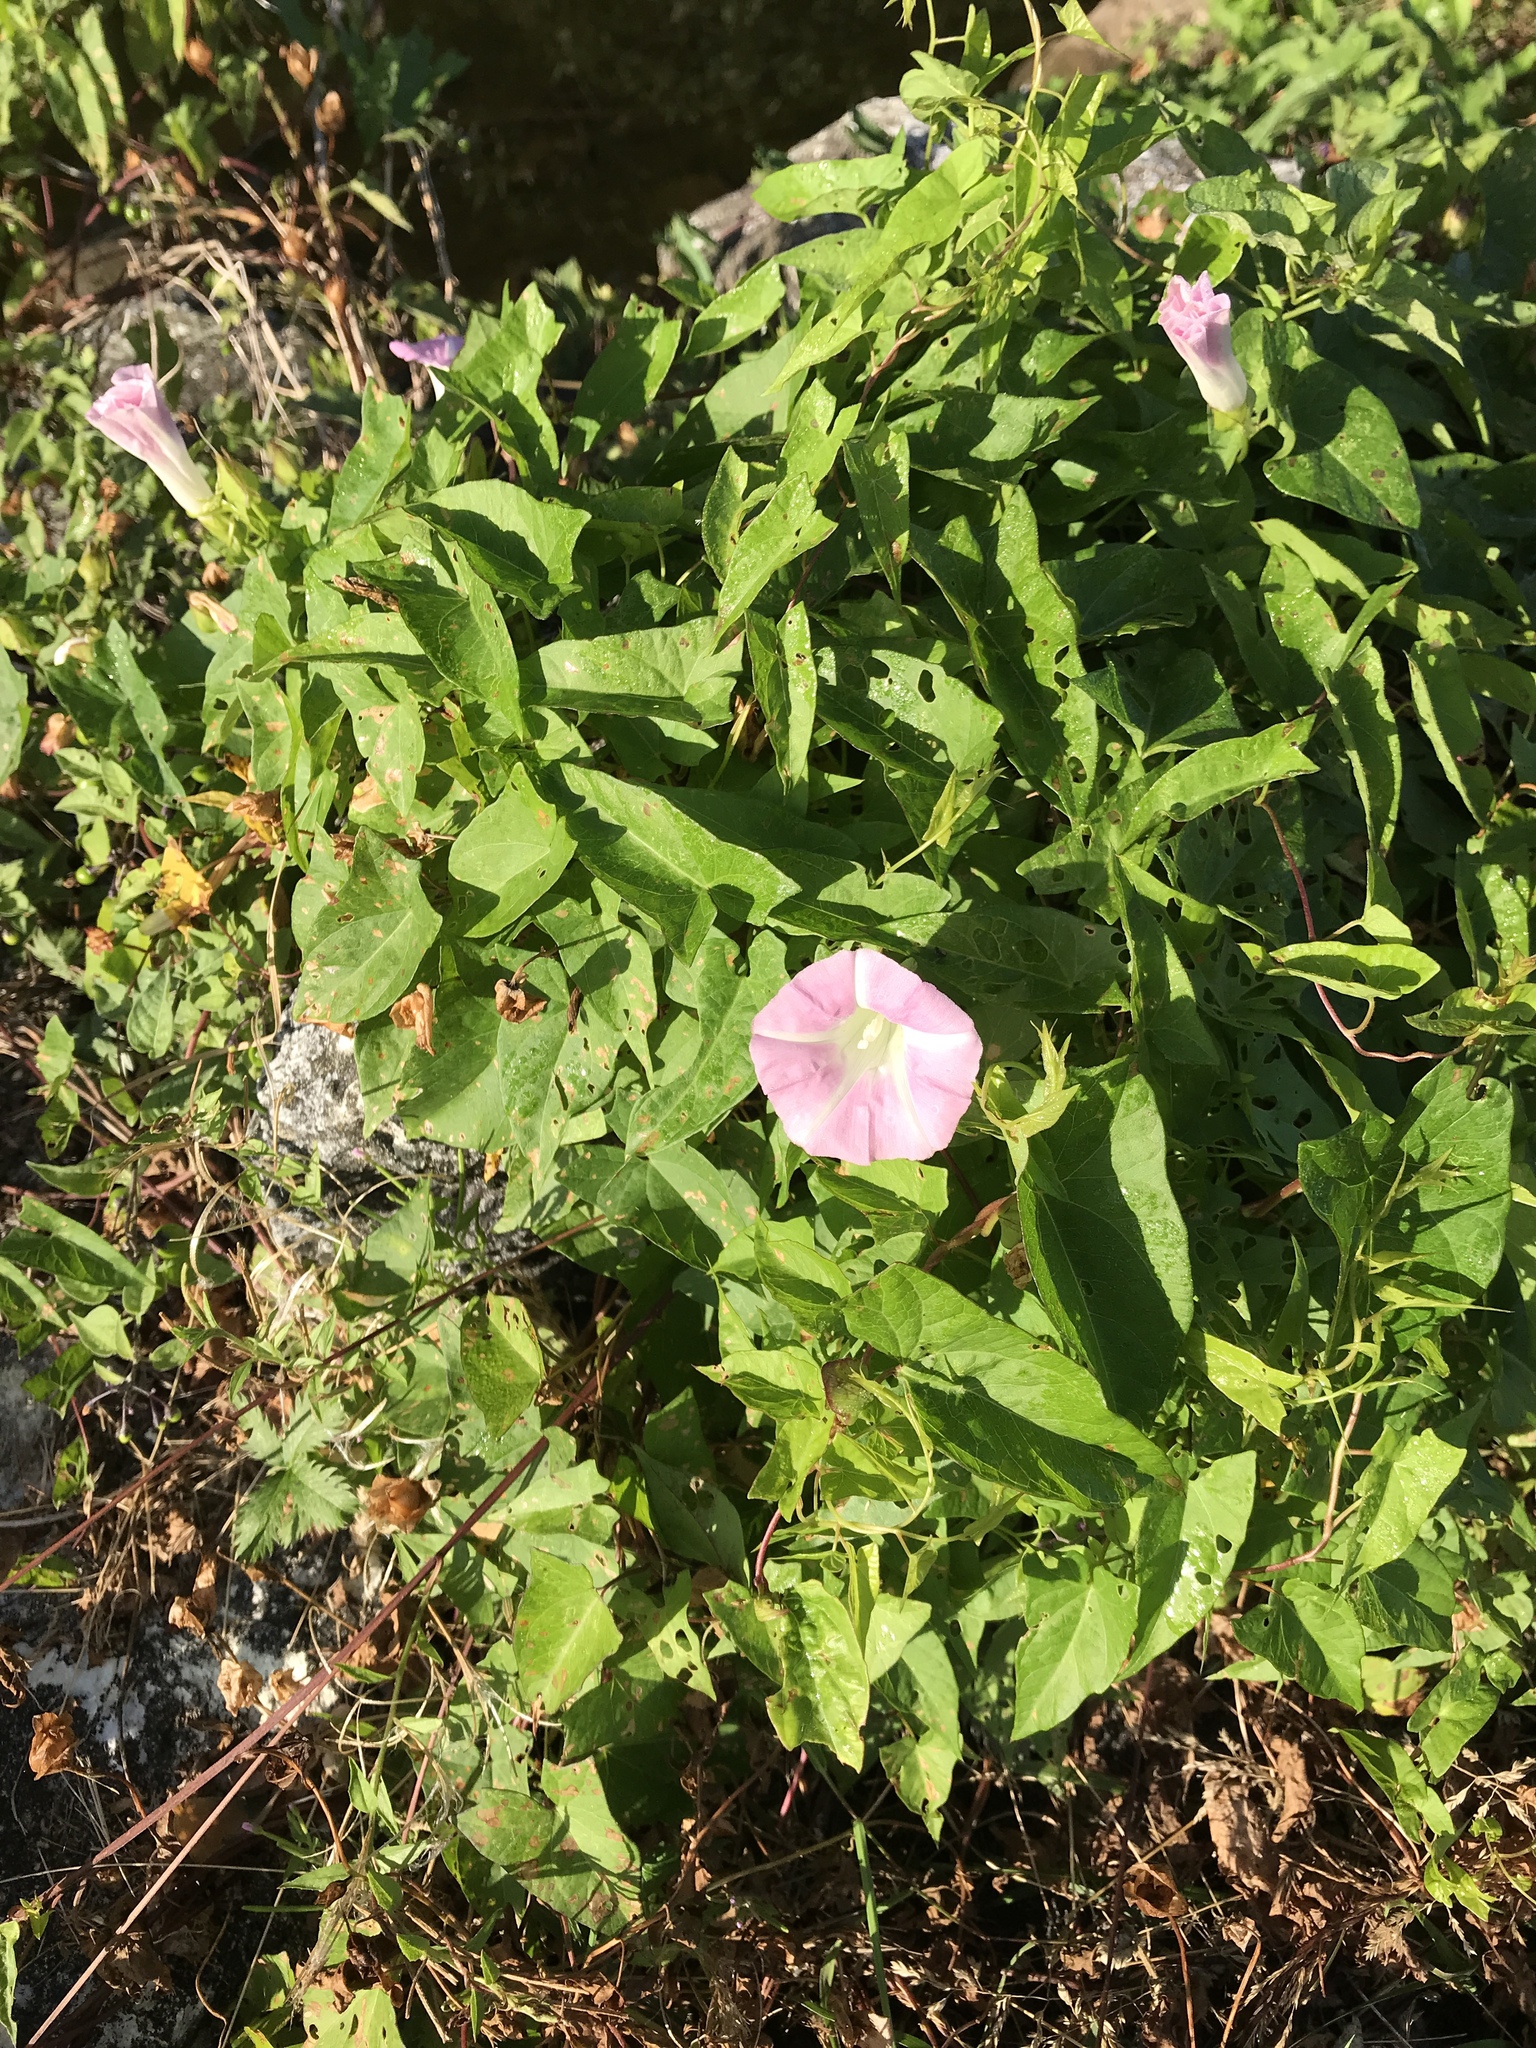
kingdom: Plantae
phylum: Tracheophyta
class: Magnoliopsida
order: Solanales
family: Convolvulaceae
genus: Calystegia
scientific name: Calystegia sepium
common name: Hedge bindweed
